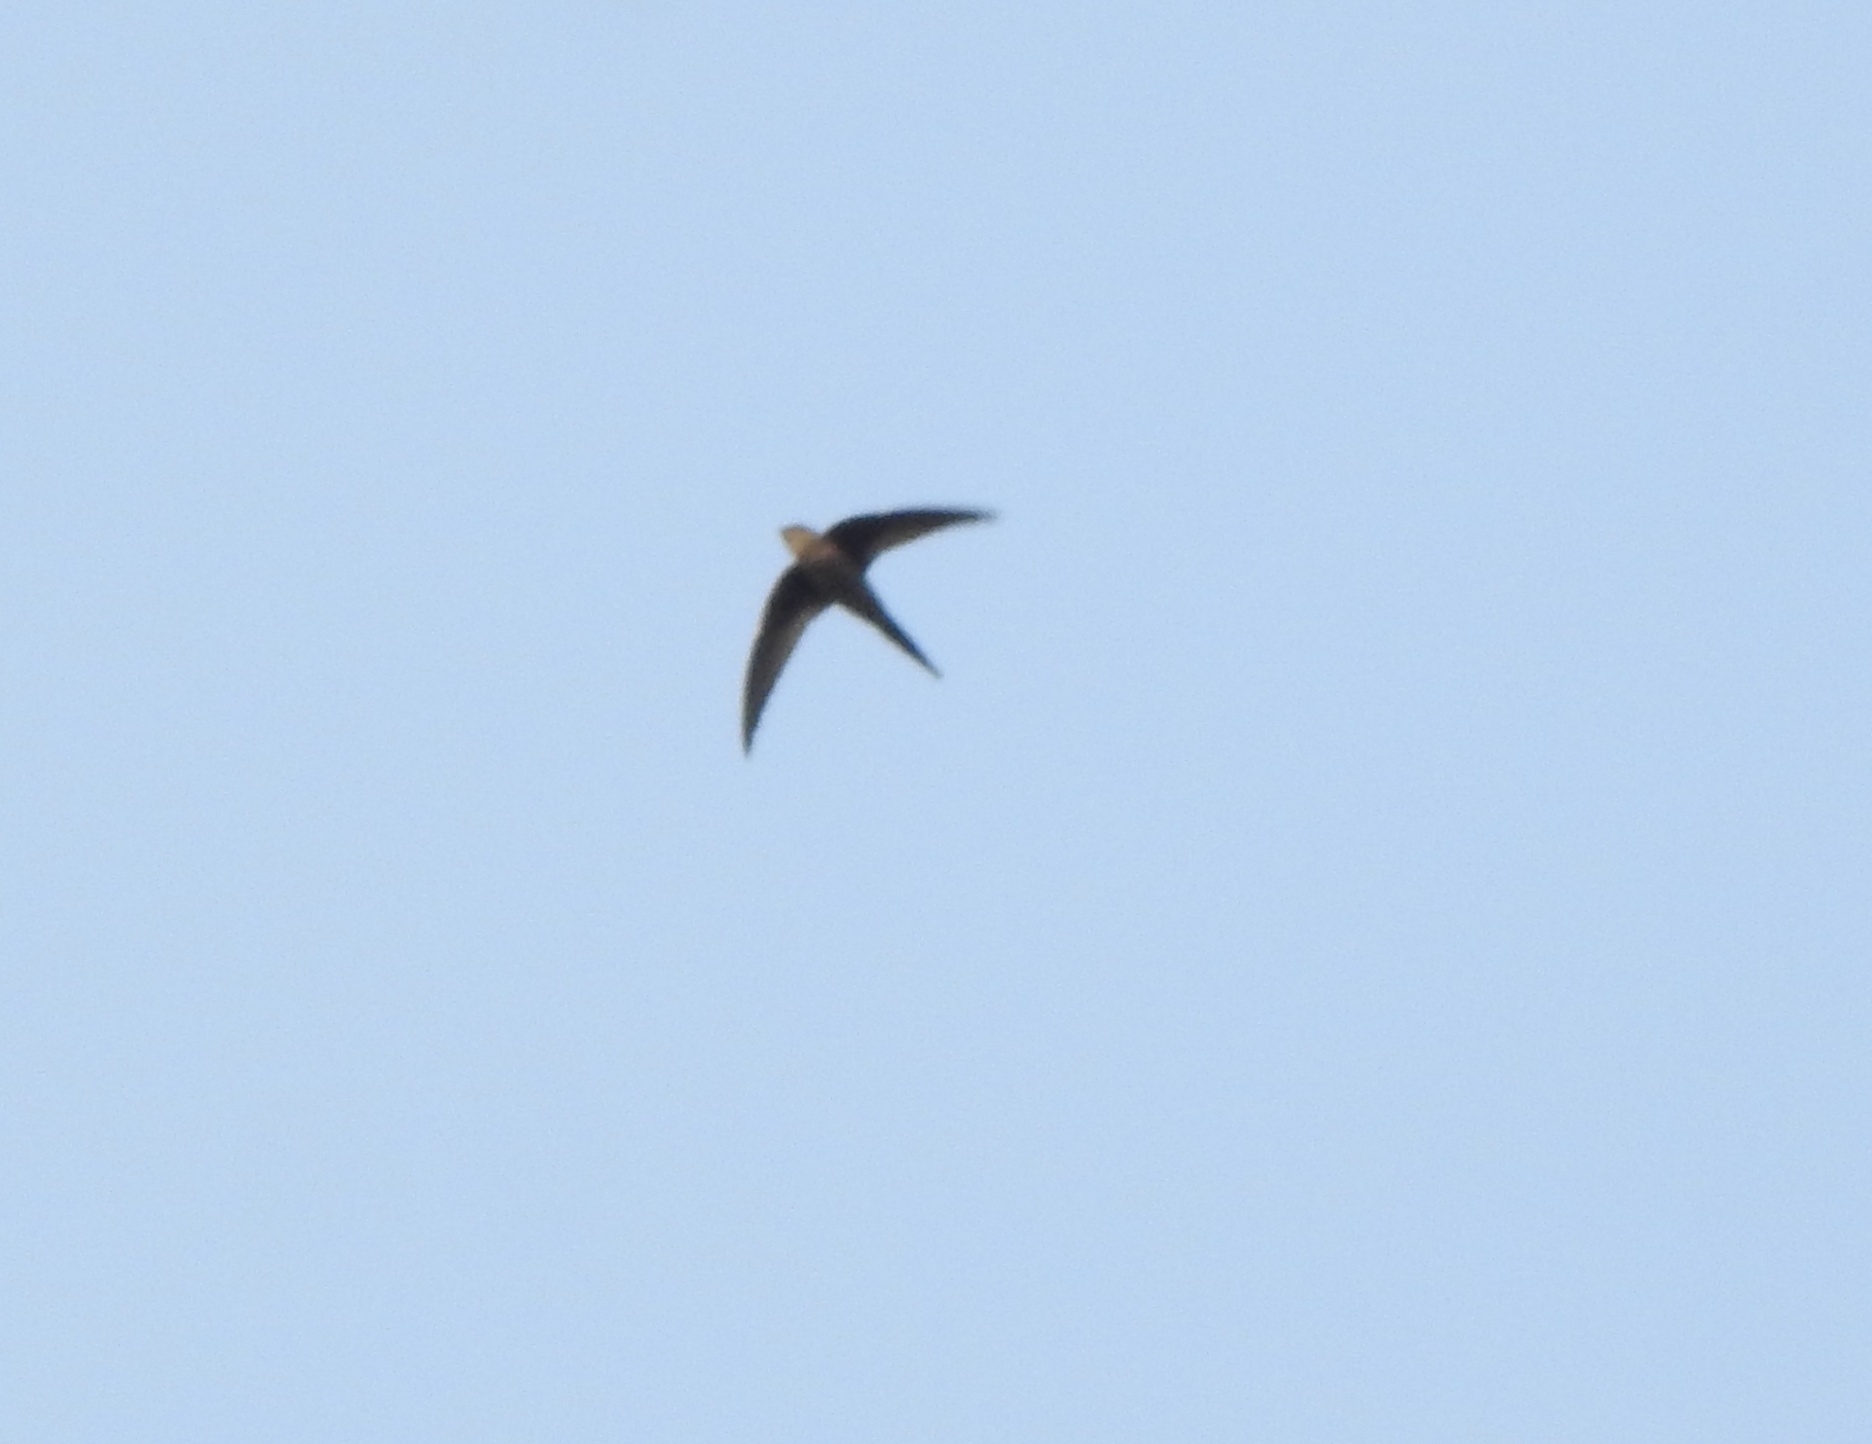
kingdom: Animalia
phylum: Chordata
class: Aves
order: Apodiformes
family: Apodidae
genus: Cypsiurus
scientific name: Cypsiurus balasiensis
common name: Asian palm swift
